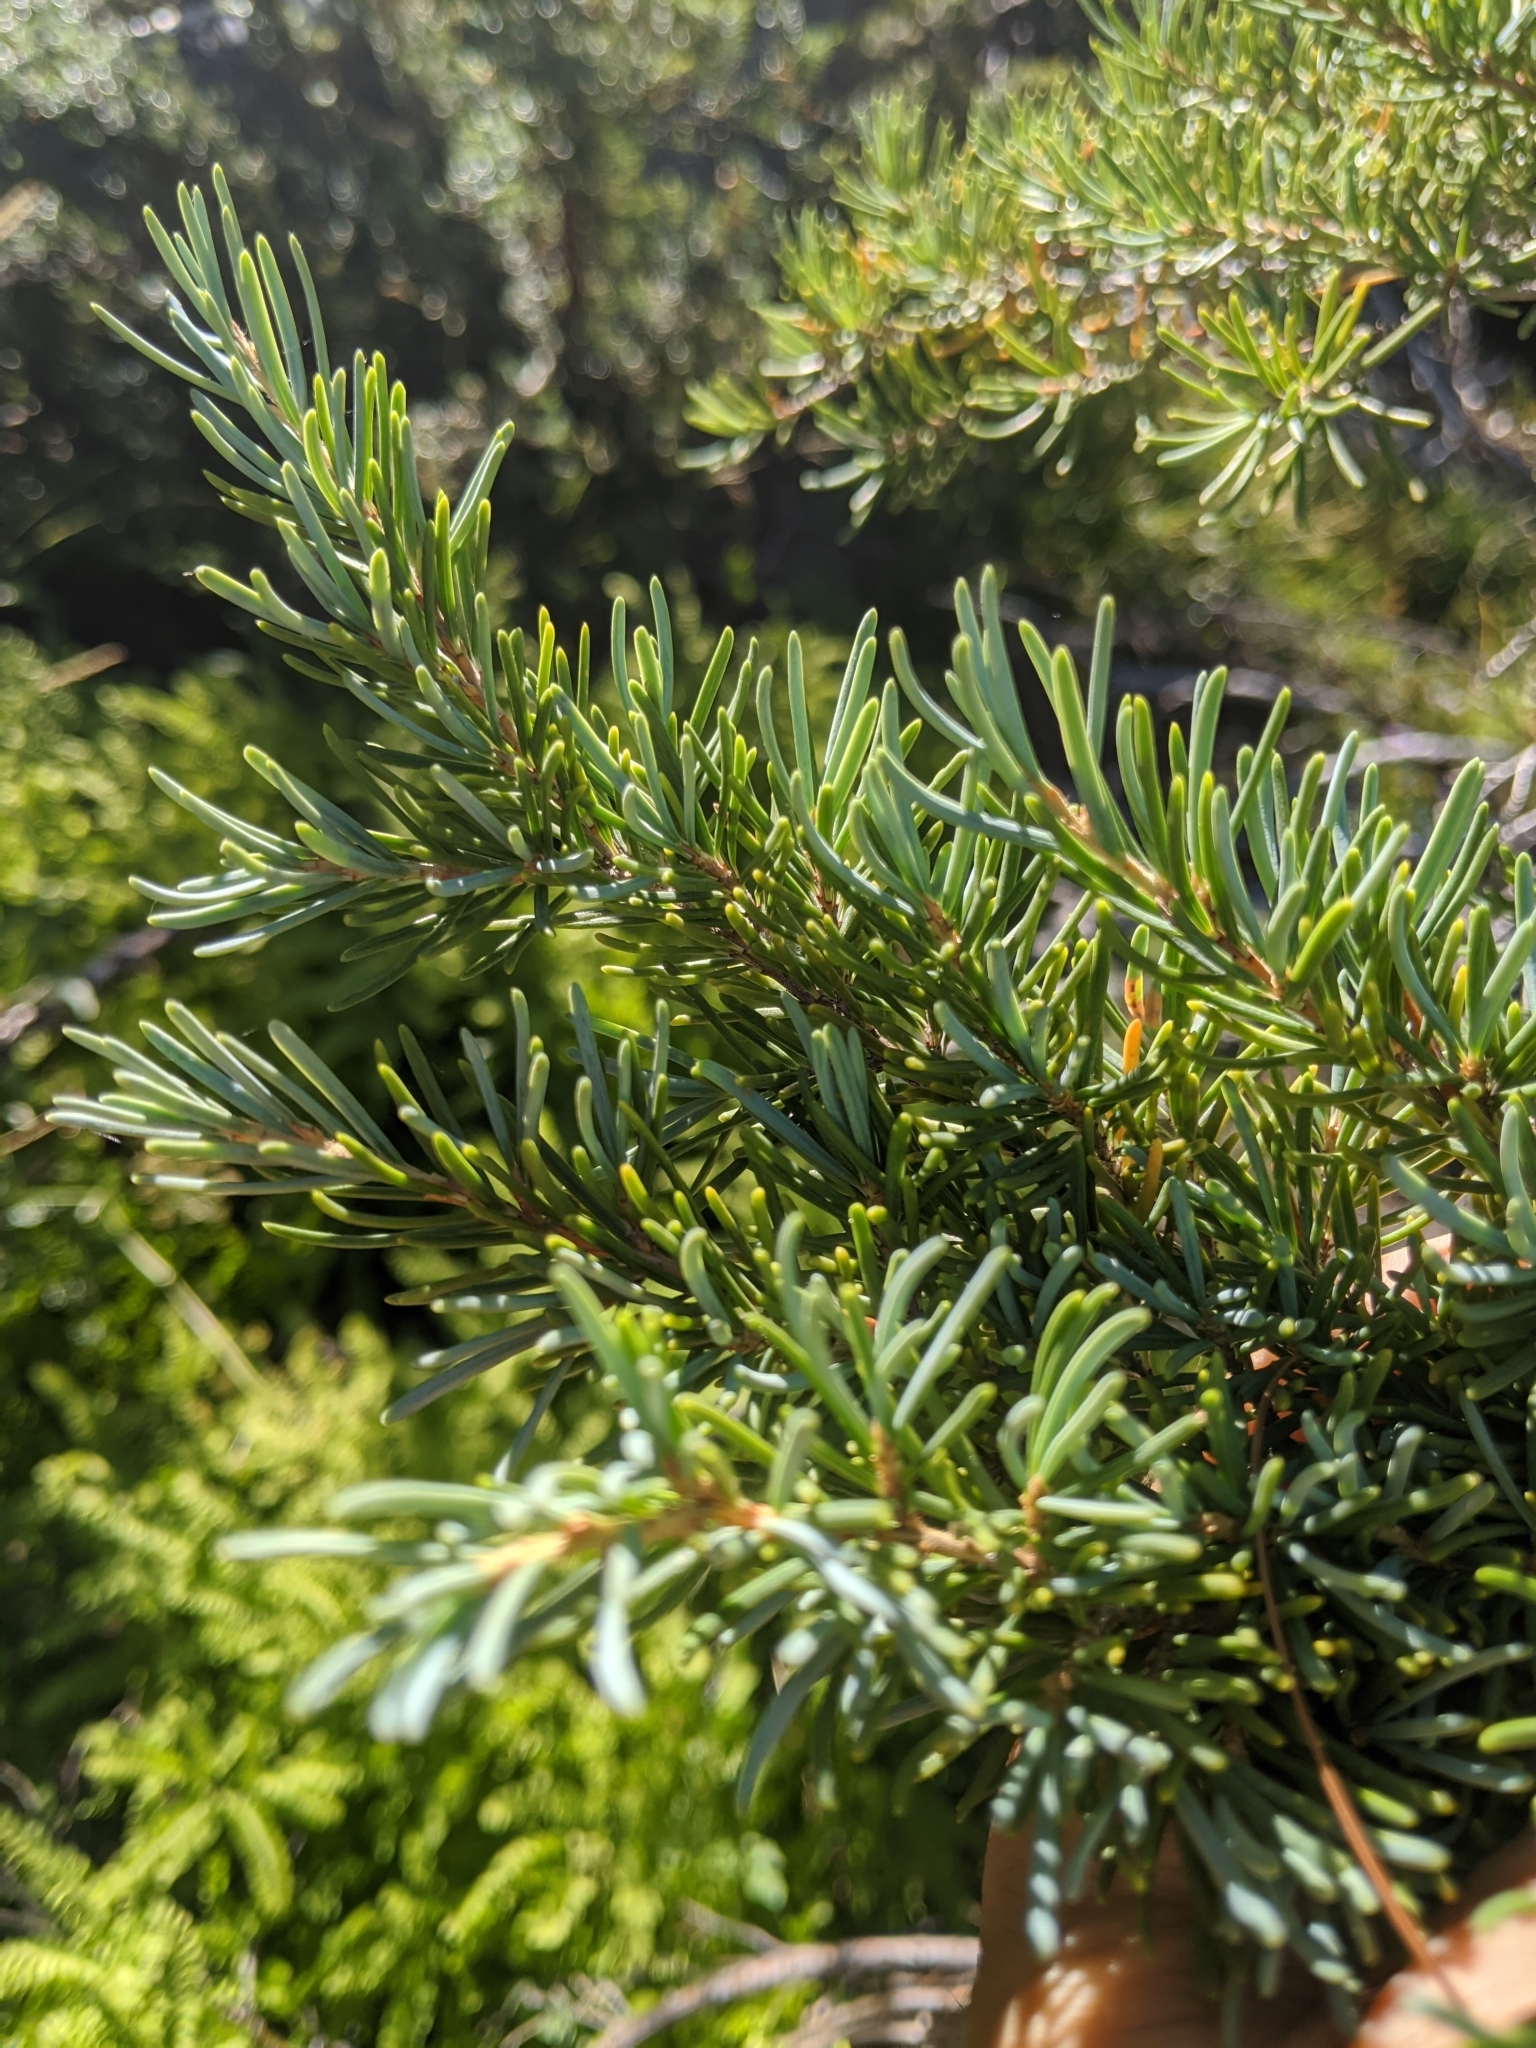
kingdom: Plantae
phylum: Tracheophyta
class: Pinopsida
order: Pinales
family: Pinaceae
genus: Tsuga
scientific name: Tsuga mertensiana
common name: Mountain hemlock
